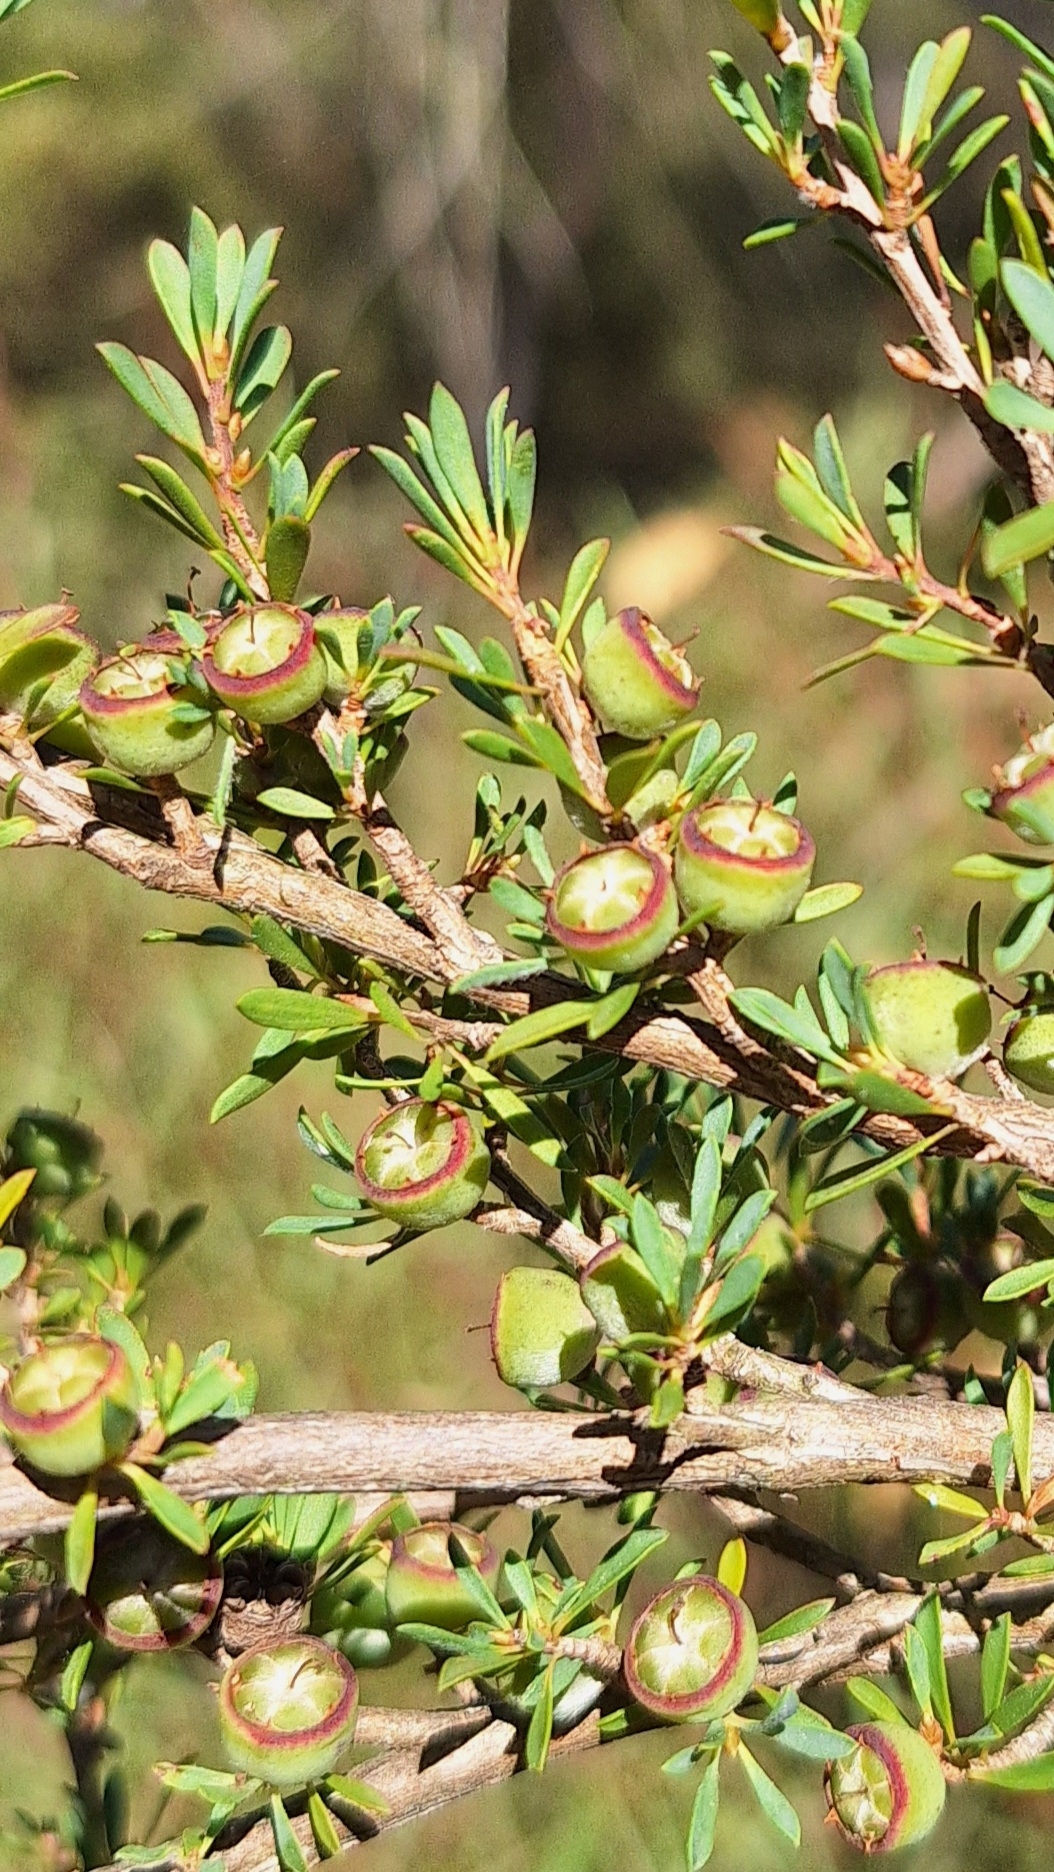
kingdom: Plantae
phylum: Tracheophyta
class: Magnoliopsida
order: Myrtales
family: Myrtaceae
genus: Leptospermum
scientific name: Leptospermum myrsinoides
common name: Heath teatree
